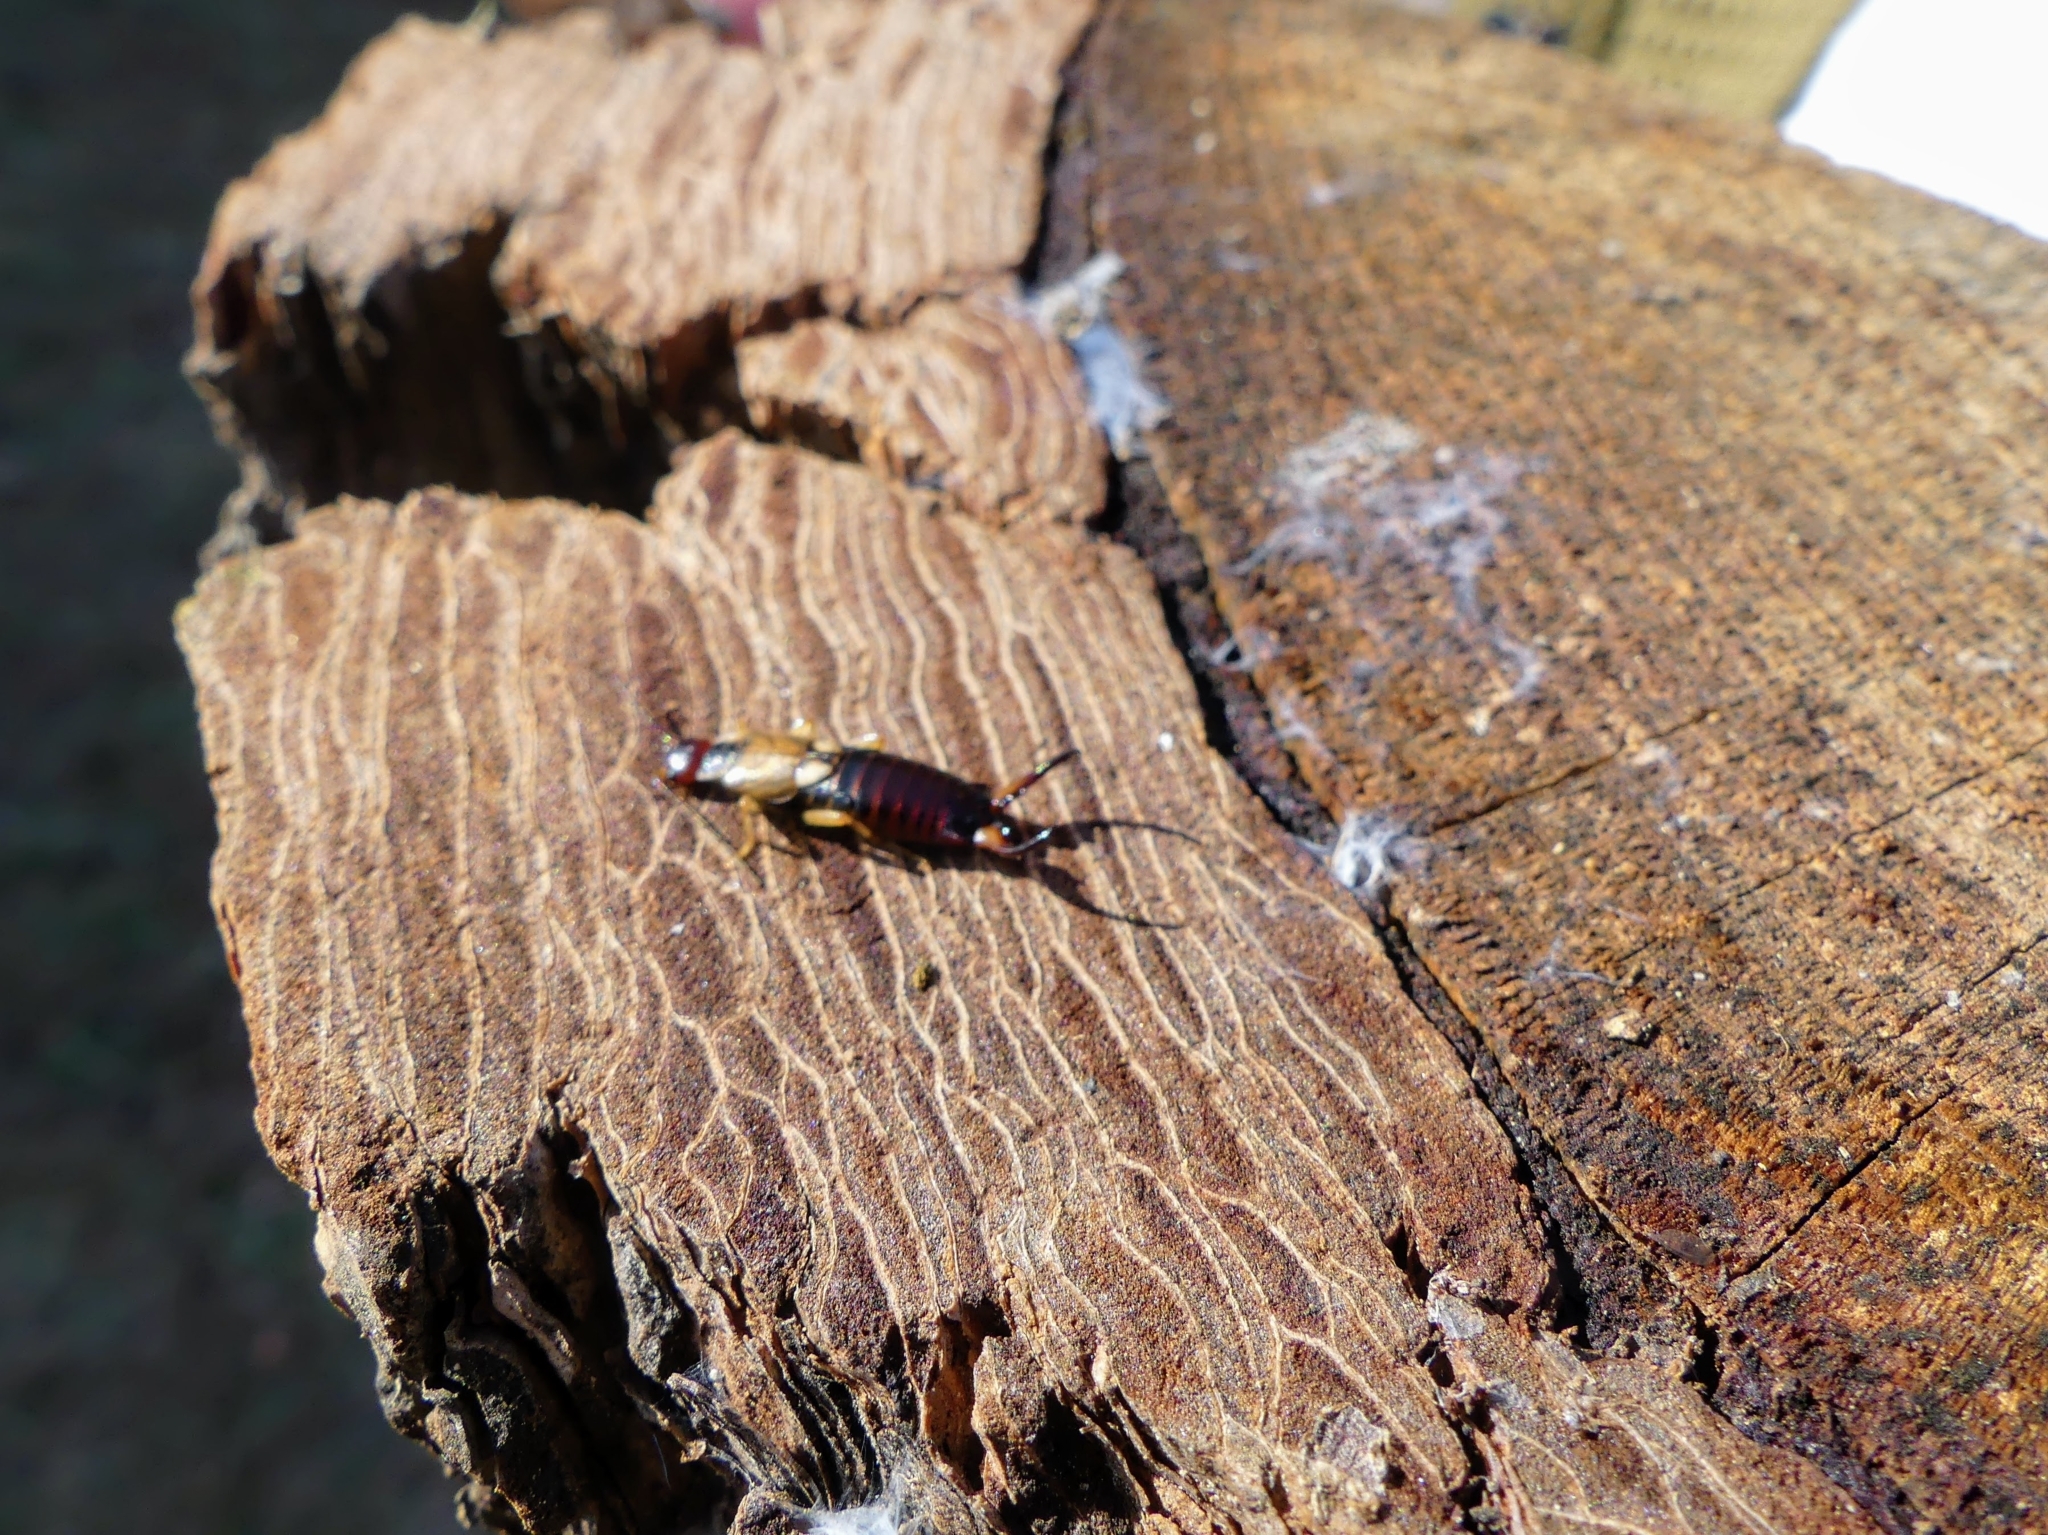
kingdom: Animalia
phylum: Arthropoda
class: Insecta
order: Dermaptera
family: Forficulidae
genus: Forficula
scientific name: Forficula
